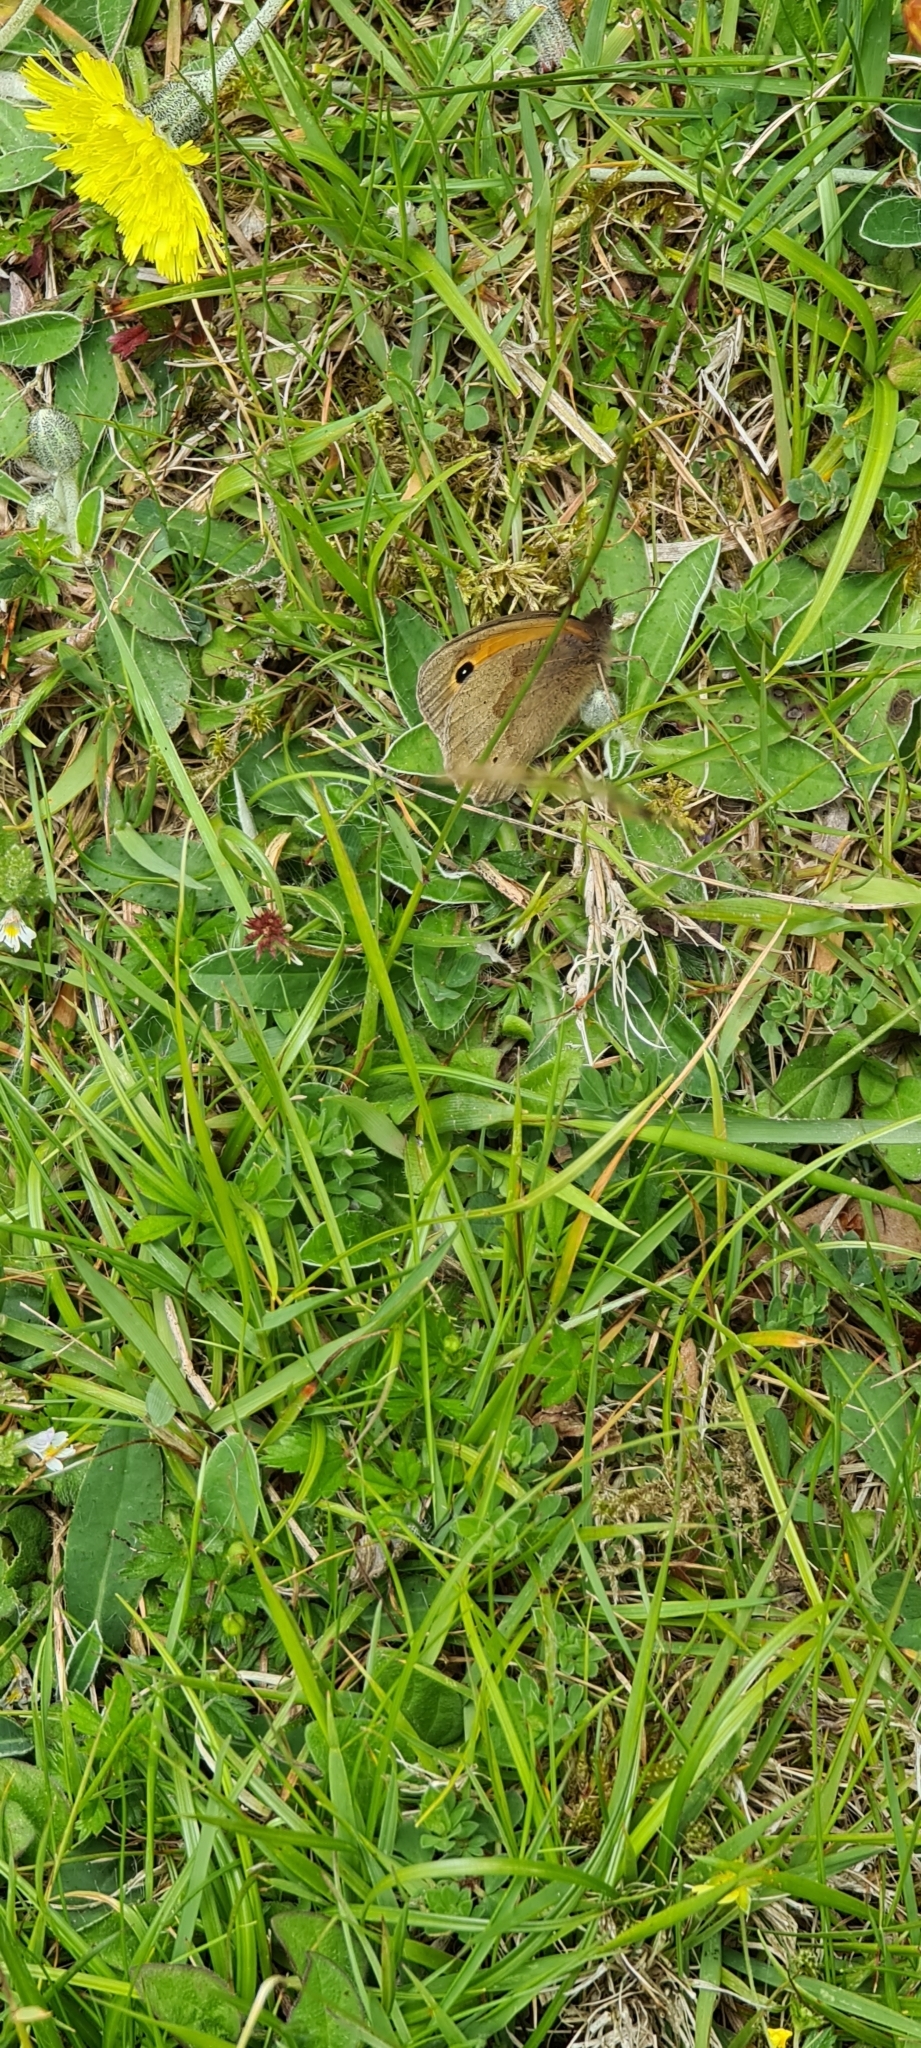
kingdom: Animalia
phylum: Arthropoda
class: Insecta
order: Lepidoptera
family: Nymphalidae
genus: Maniola
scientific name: Maniola jurtina
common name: Meadow brown
